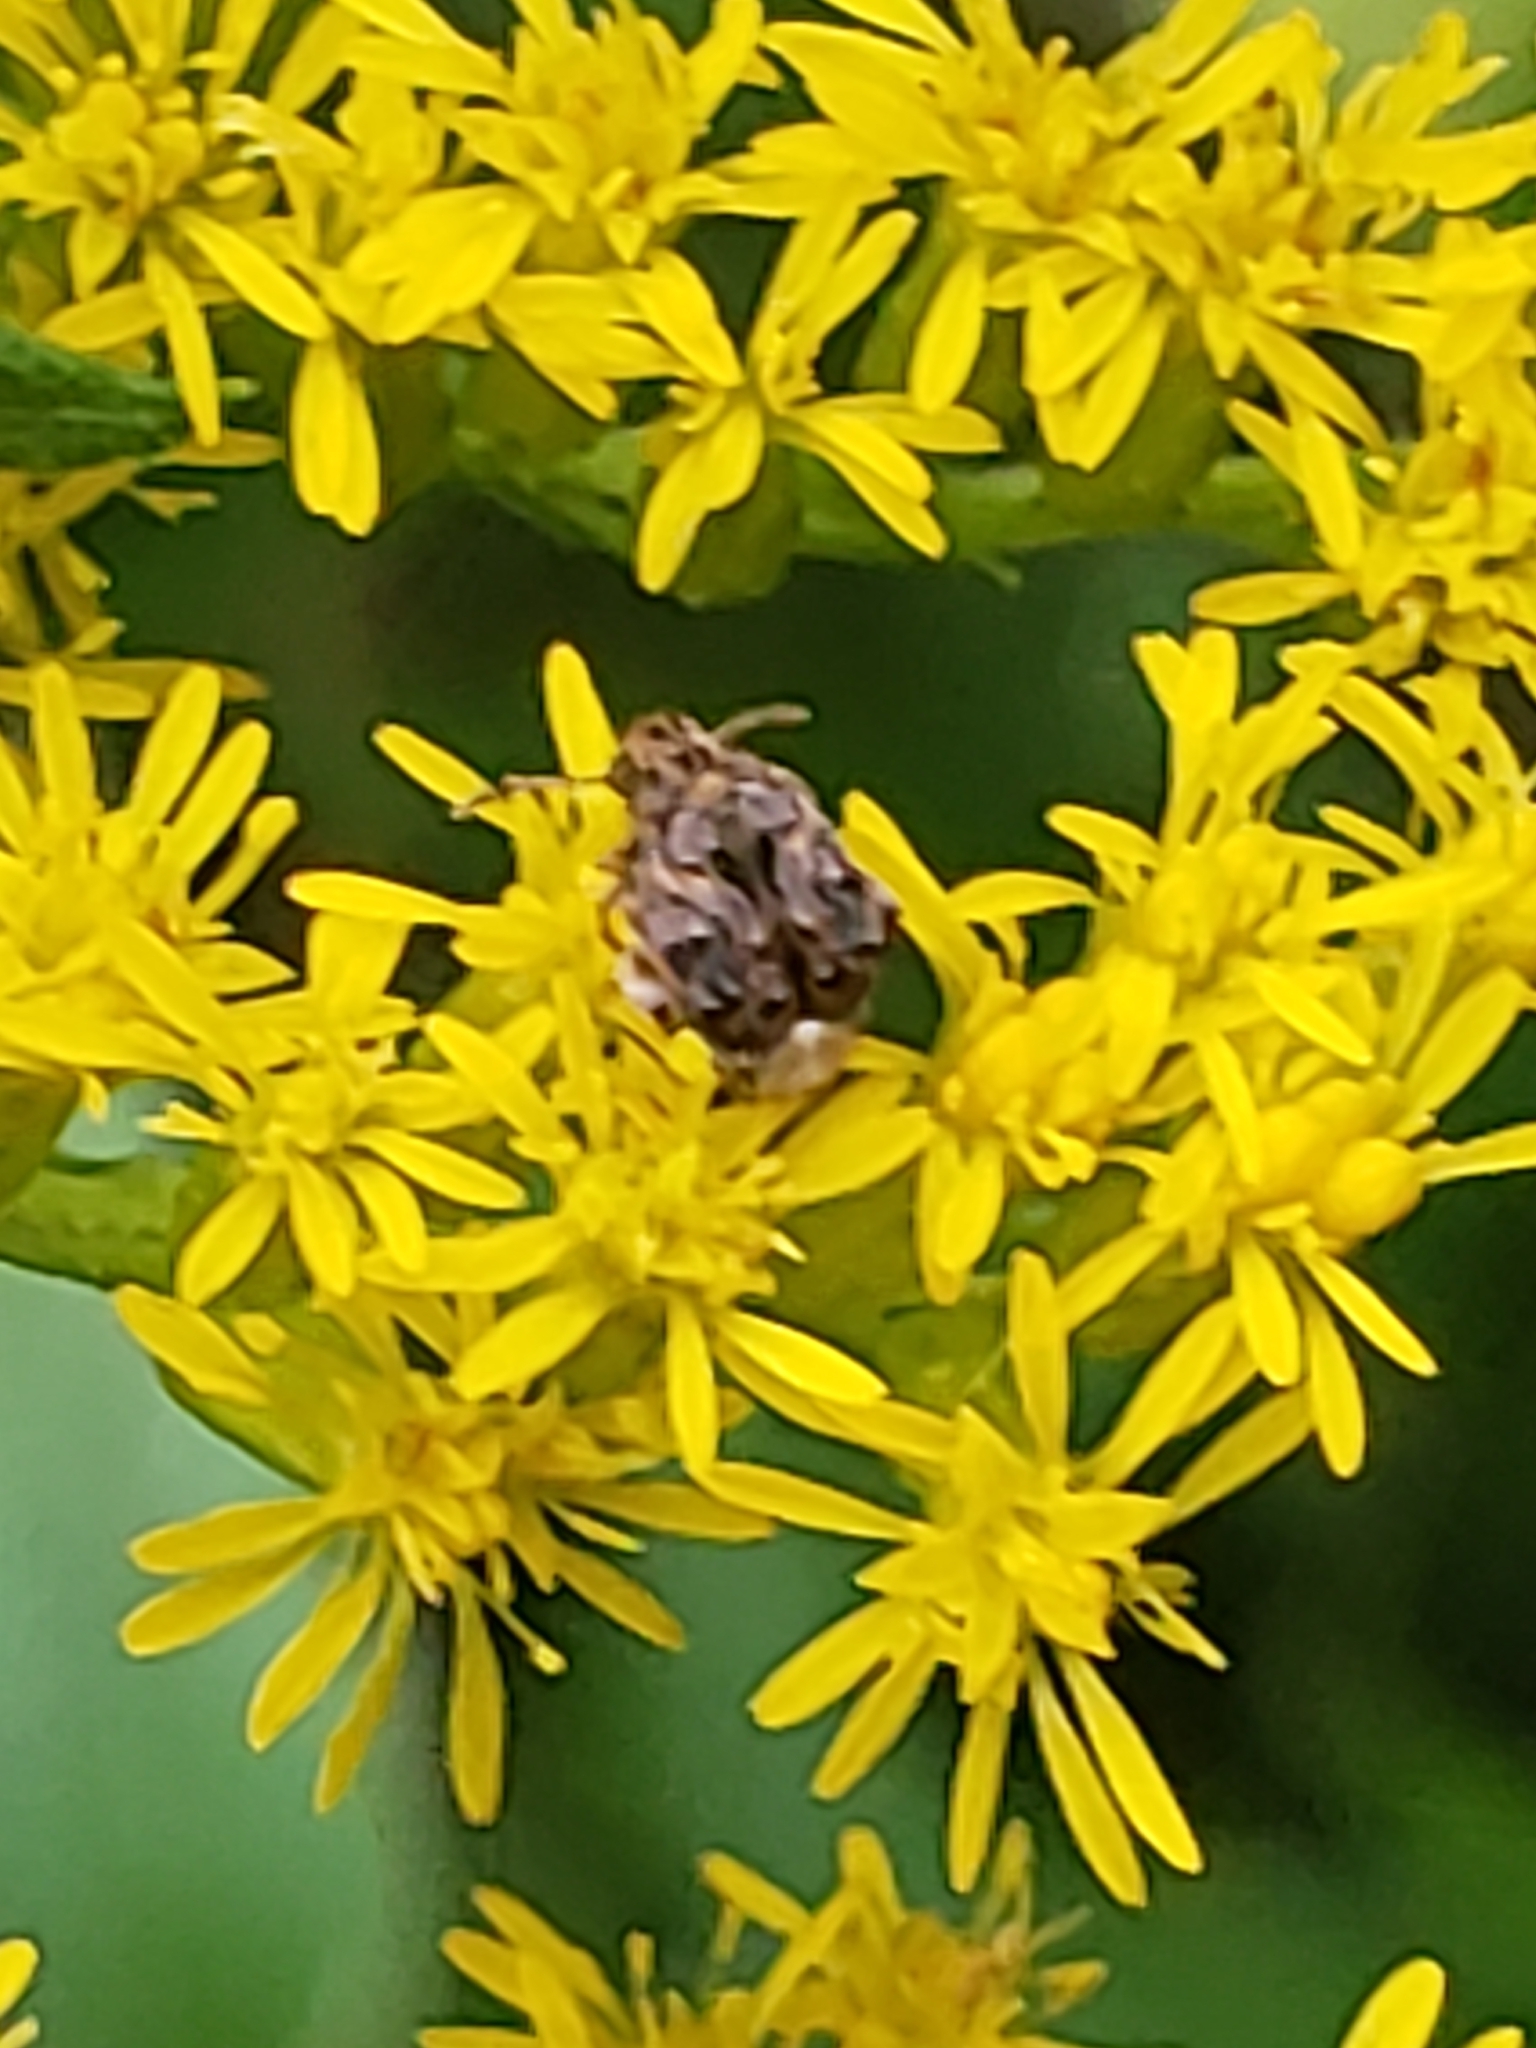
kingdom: Animalia
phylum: Arthropoda
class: Insecta
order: Coleoptera
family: Chrysomelidae
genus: Gibbobruchus
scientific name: Gibbobruchus mimus
